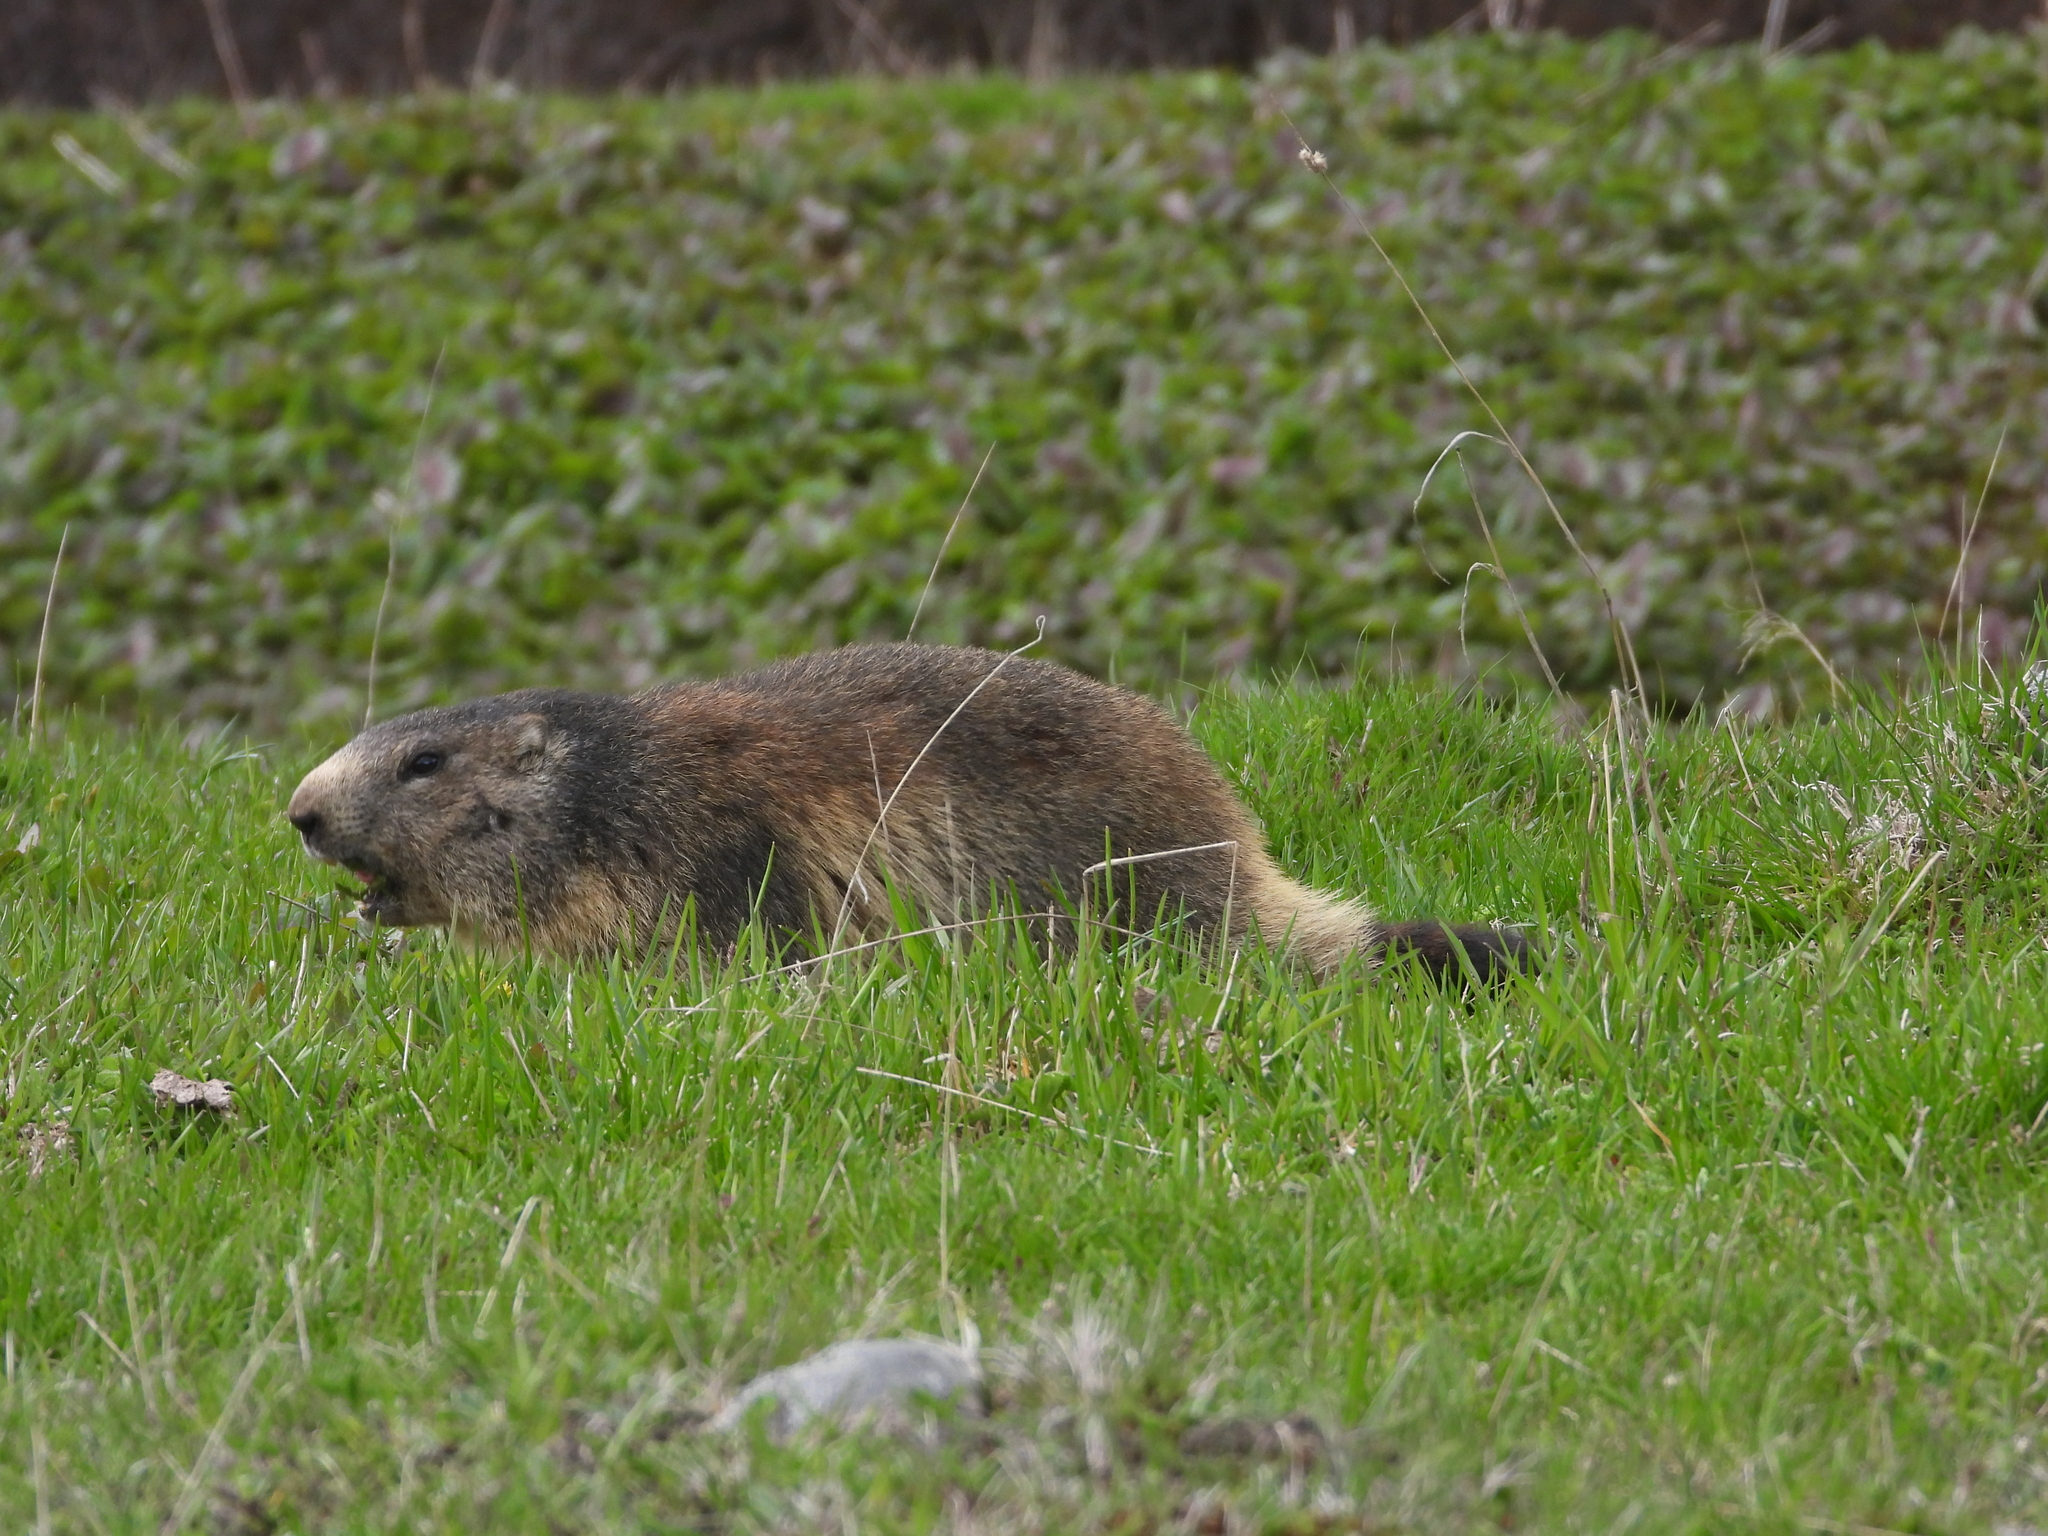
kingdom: Animalia
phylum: Chordata
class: Mammalia
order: Rodentia
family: Sciuridae
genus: Marmota
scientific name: Marmota marmota
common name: Alpine marmot
